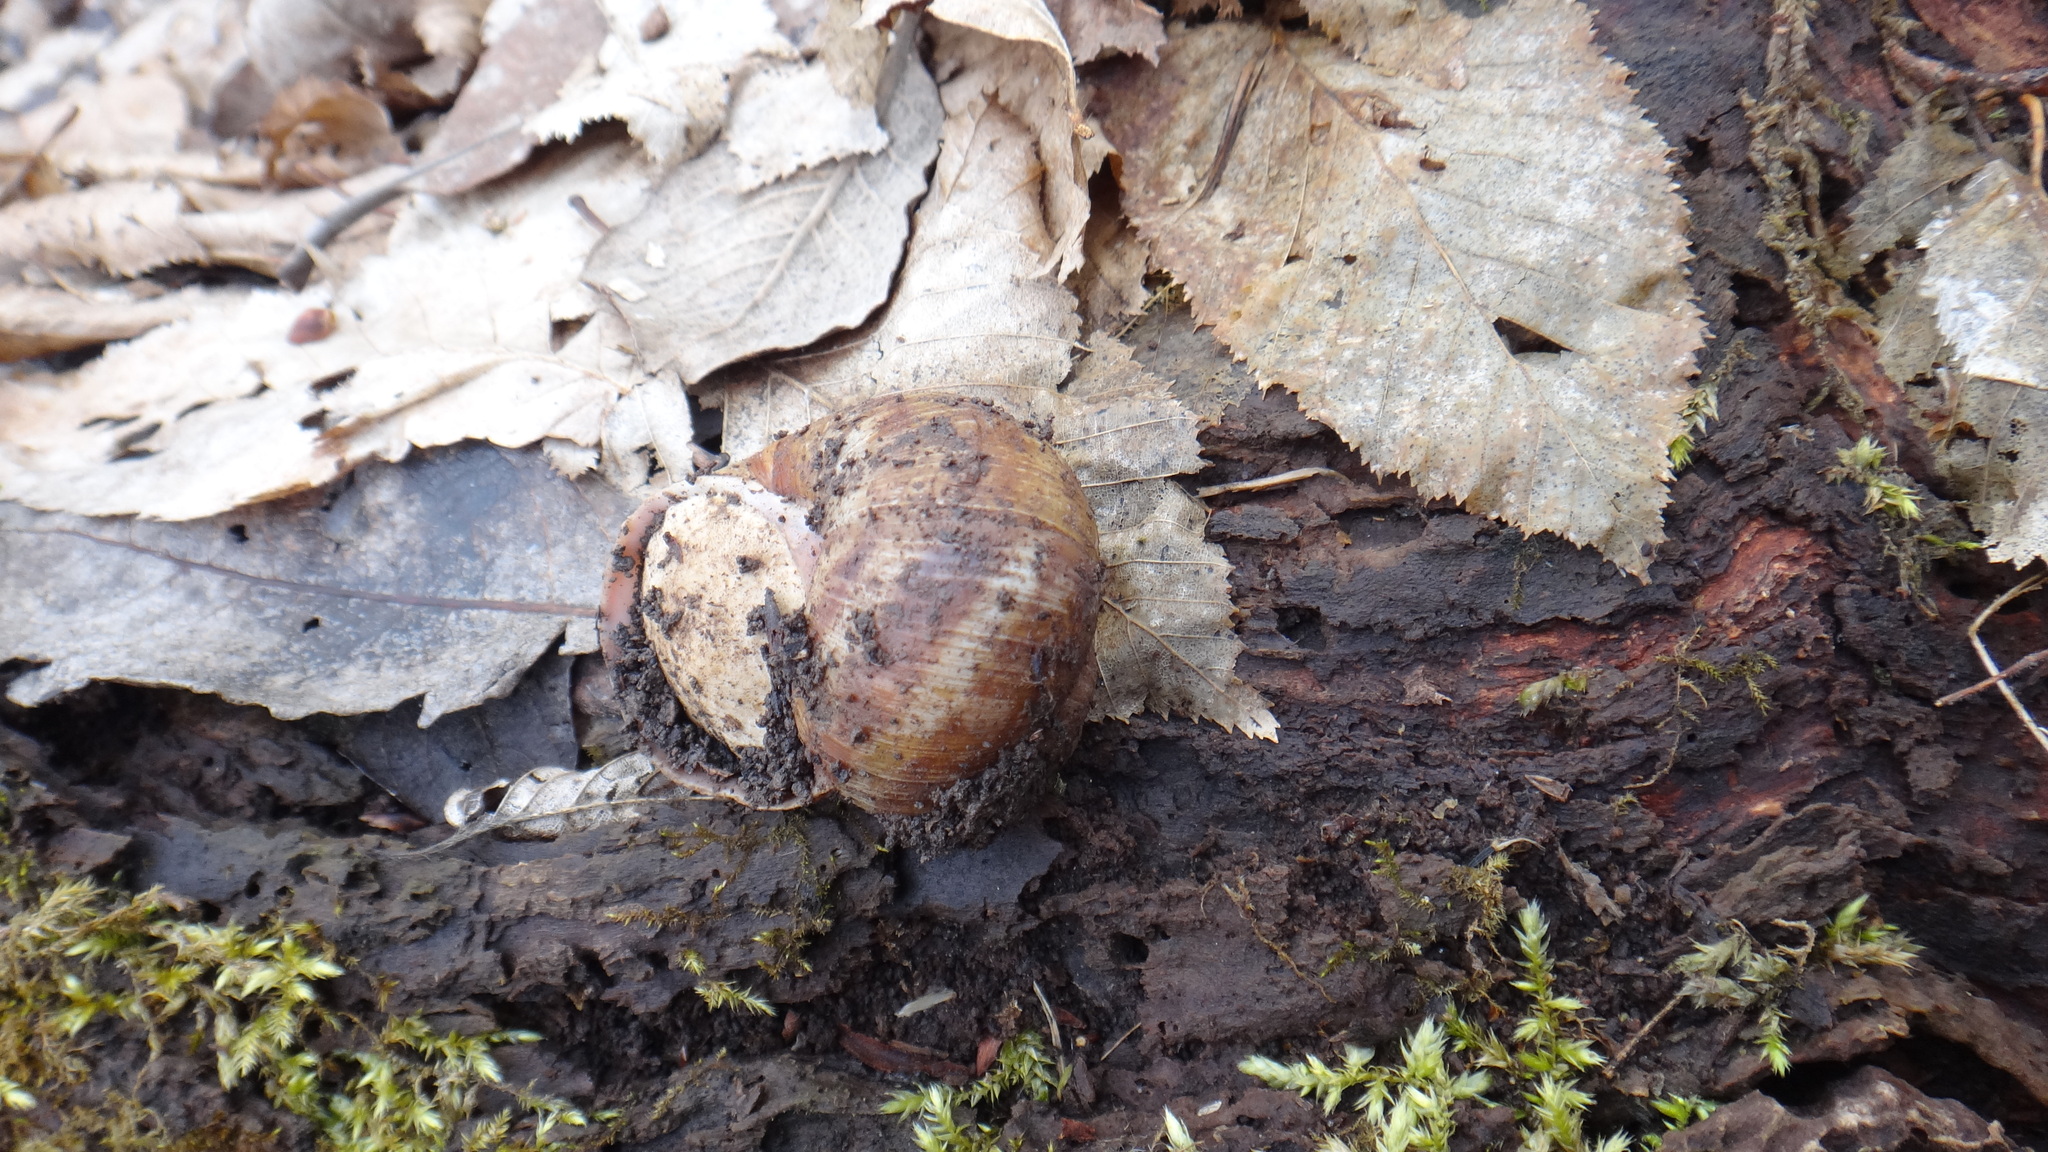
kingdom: Animalia
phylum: Mollusca
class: Gastropoda
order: Stylommatophora
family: Helicidae
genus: Helix
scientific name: Helix pomatia
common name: Roman snail
